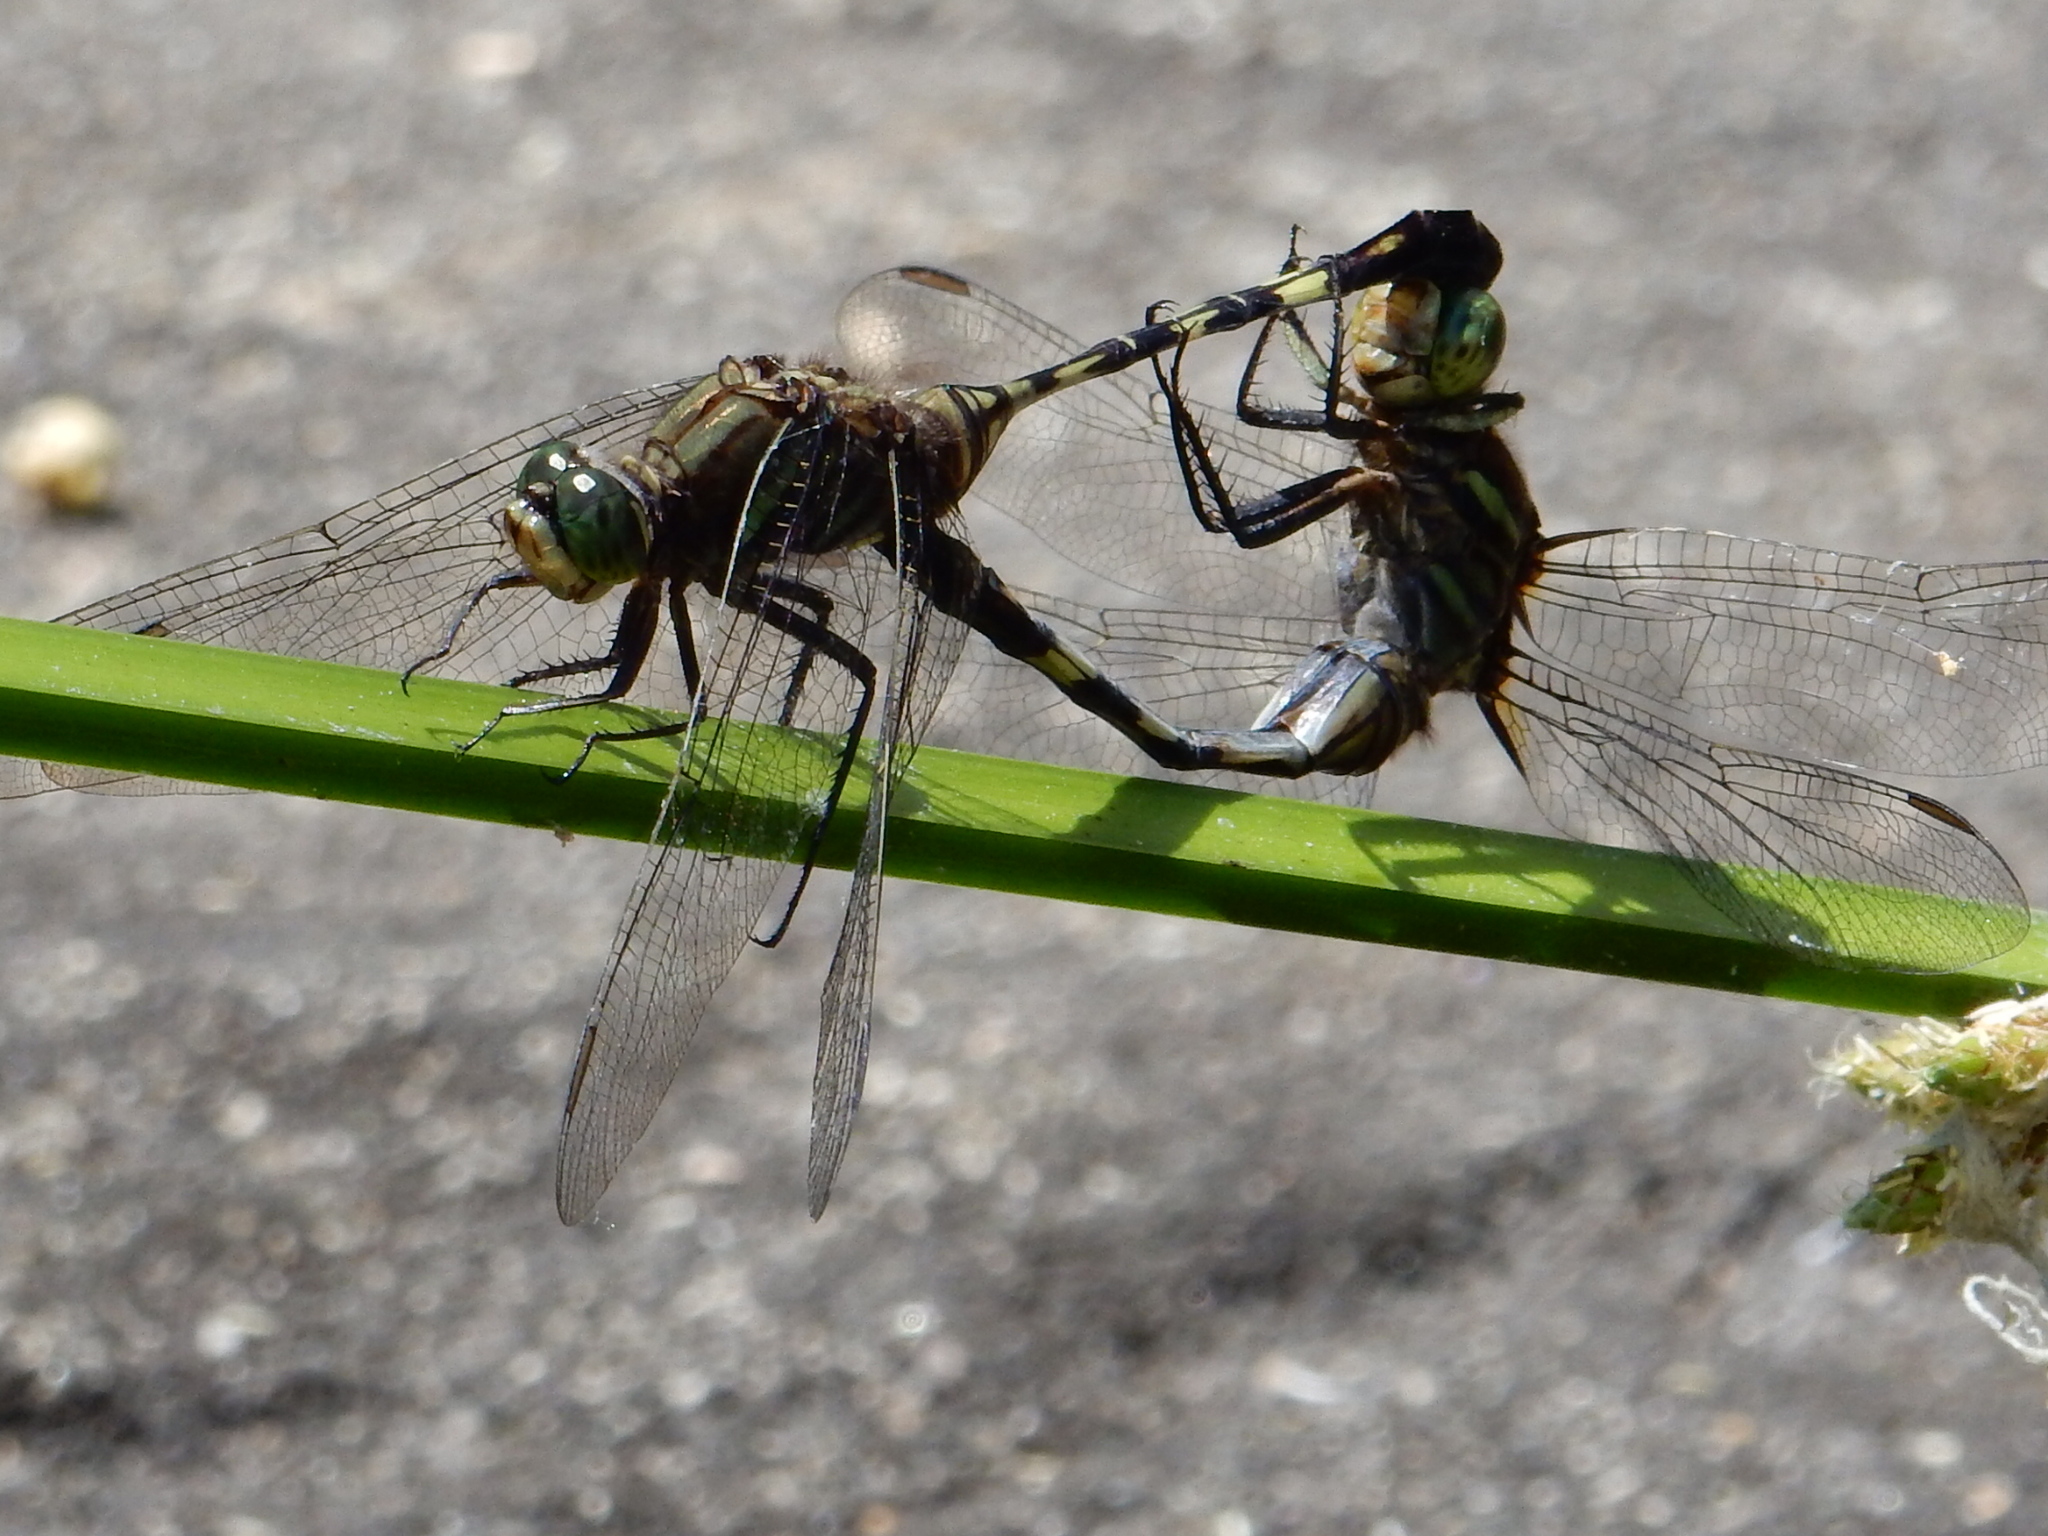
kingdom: Animalia
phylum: Arthropoda
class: Insecta
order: Odonata
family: Libellulidae
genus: Orthetrum
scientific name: Orthetrum serapia
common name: Green skimmer
